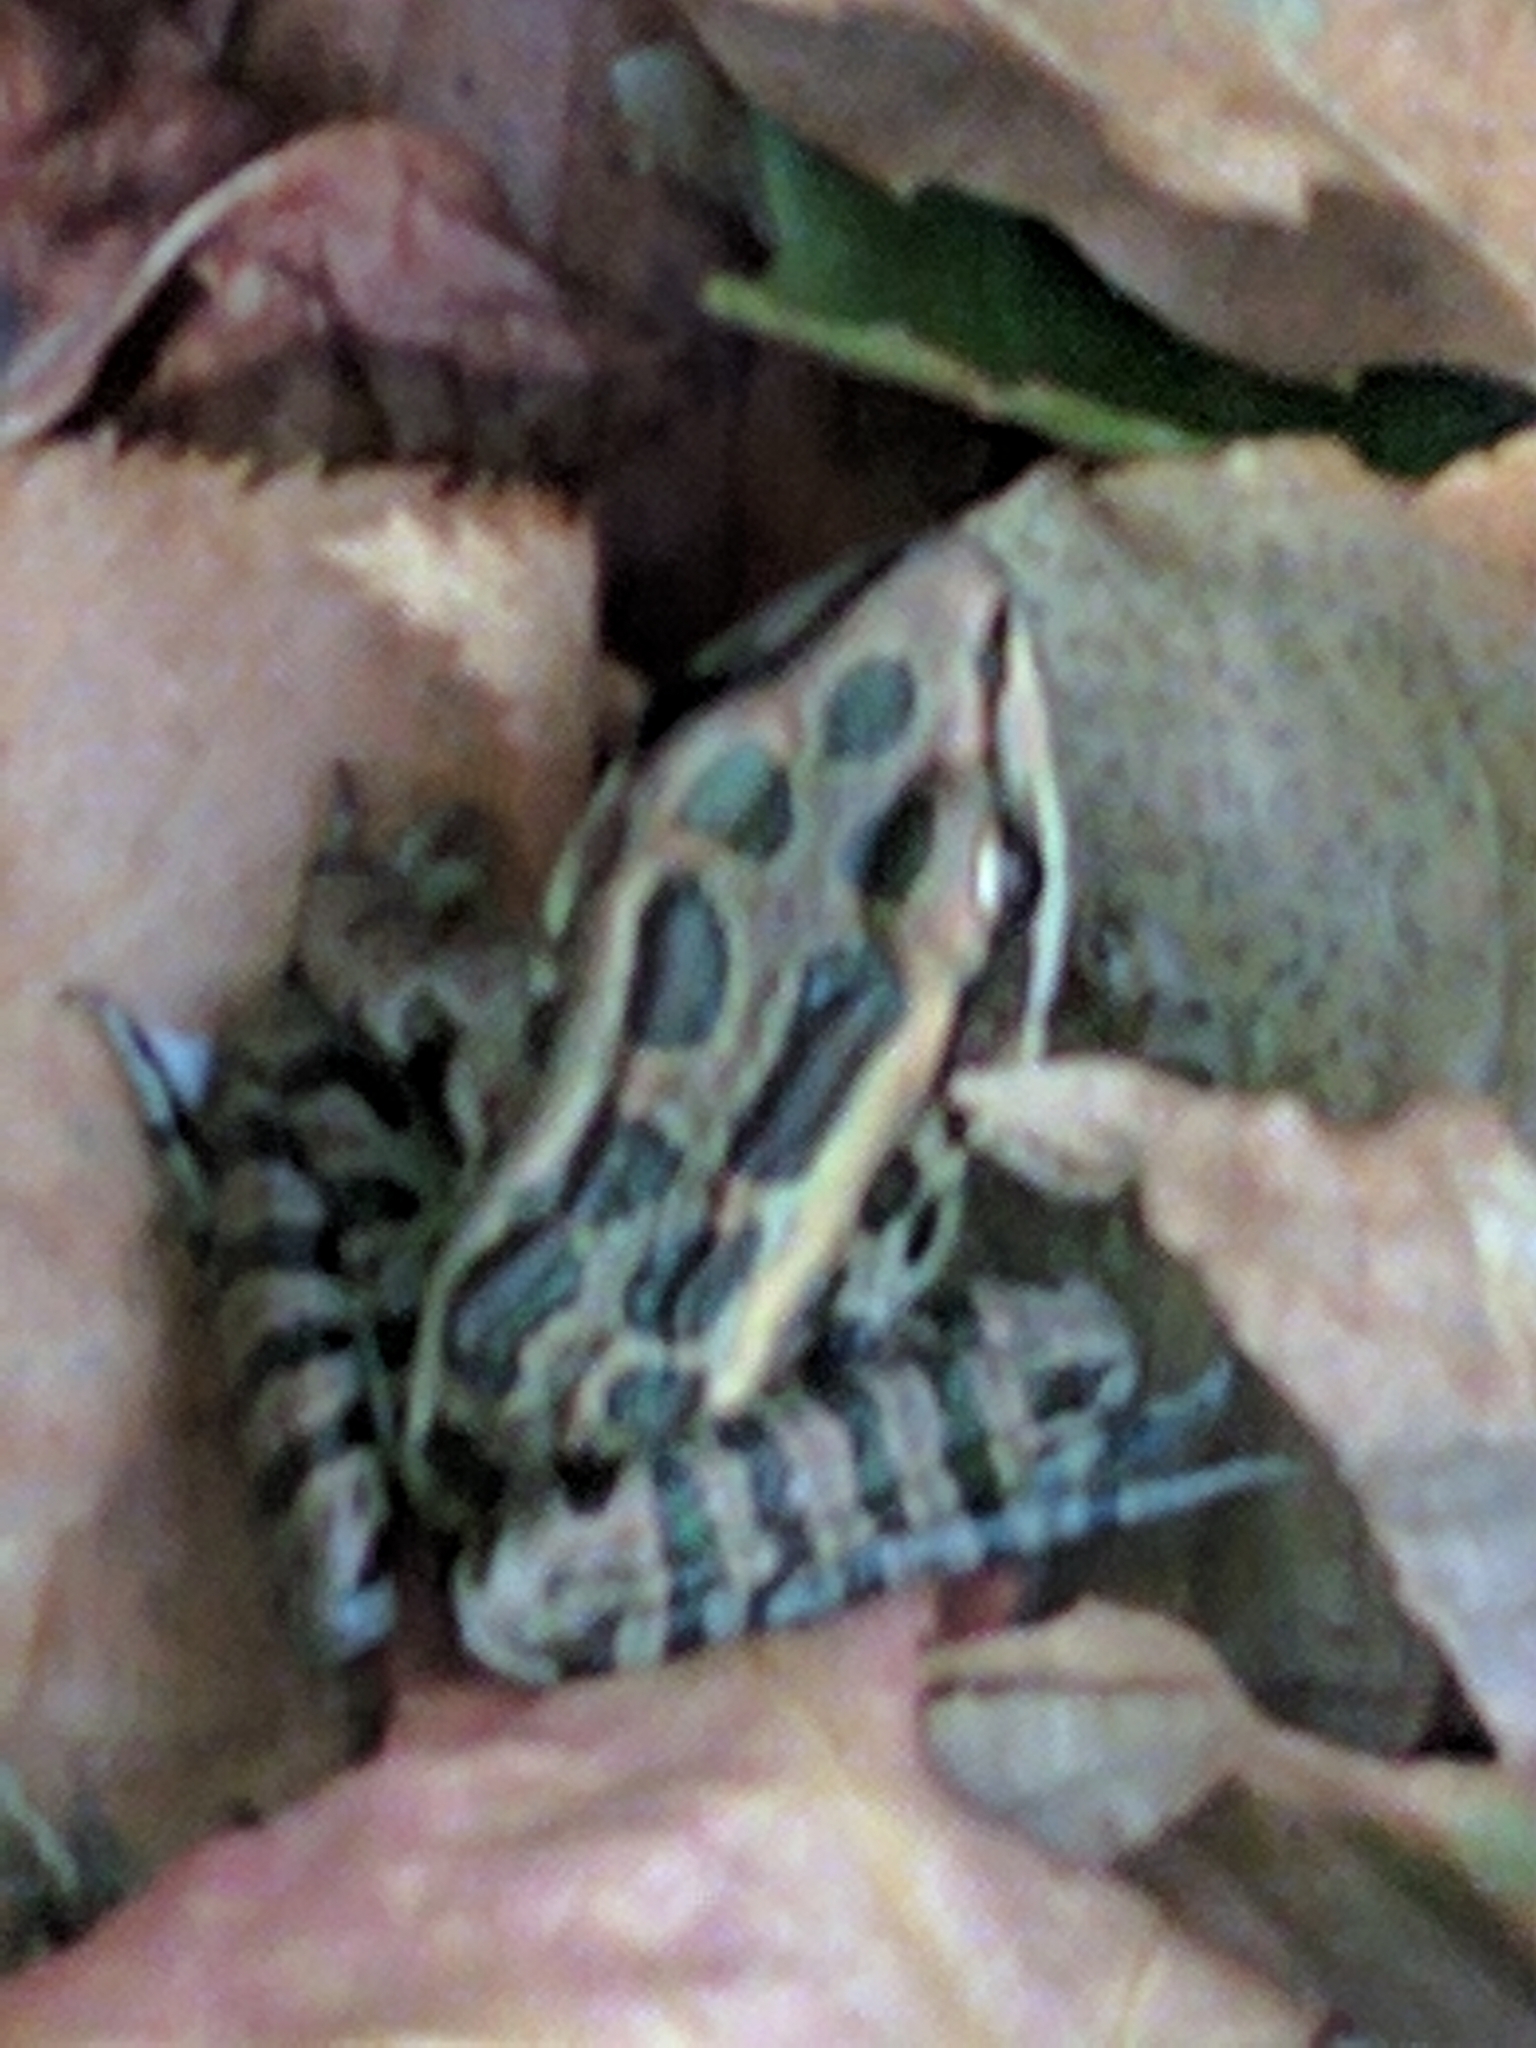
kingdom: Animalia
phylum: Chordata
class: Amphibia
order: Anura
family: Ranidae
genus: Lithobates
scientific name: Lithobates palustris
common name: Pickerel frog
